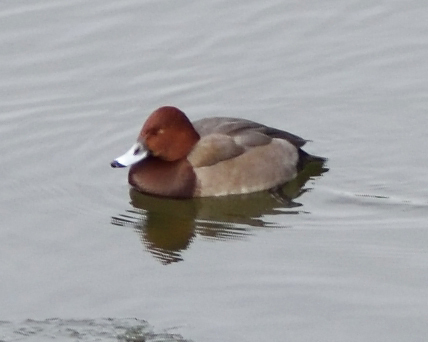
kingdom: Animalia
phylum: Chordata
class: Aves
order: Anseriformes
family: Anatidae
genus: Aythya
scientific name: Aythya
